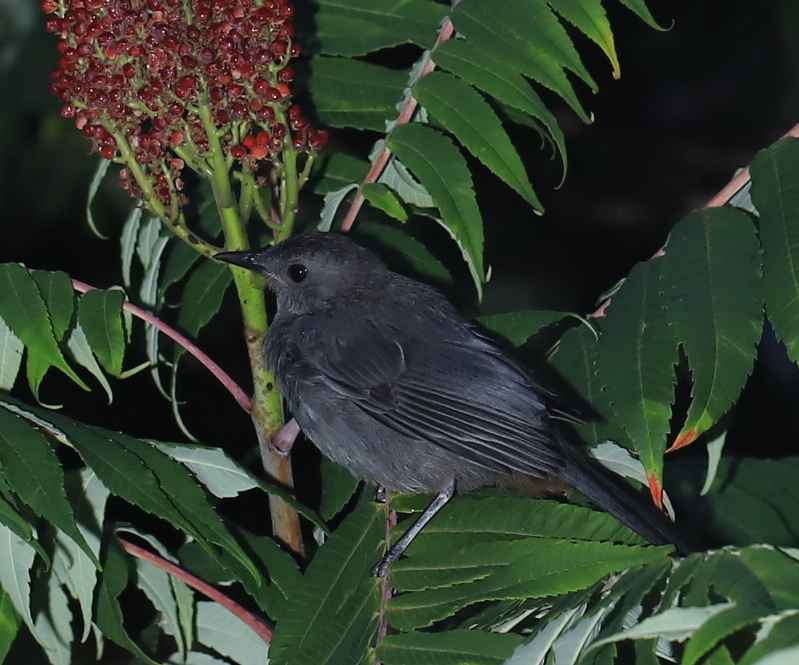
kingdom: Animalia
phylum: Chordata
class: Aves
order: Passeriformes
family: Mimidae
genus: Dumetella
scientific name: Dumetella carolinensis
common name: Gray catbird
